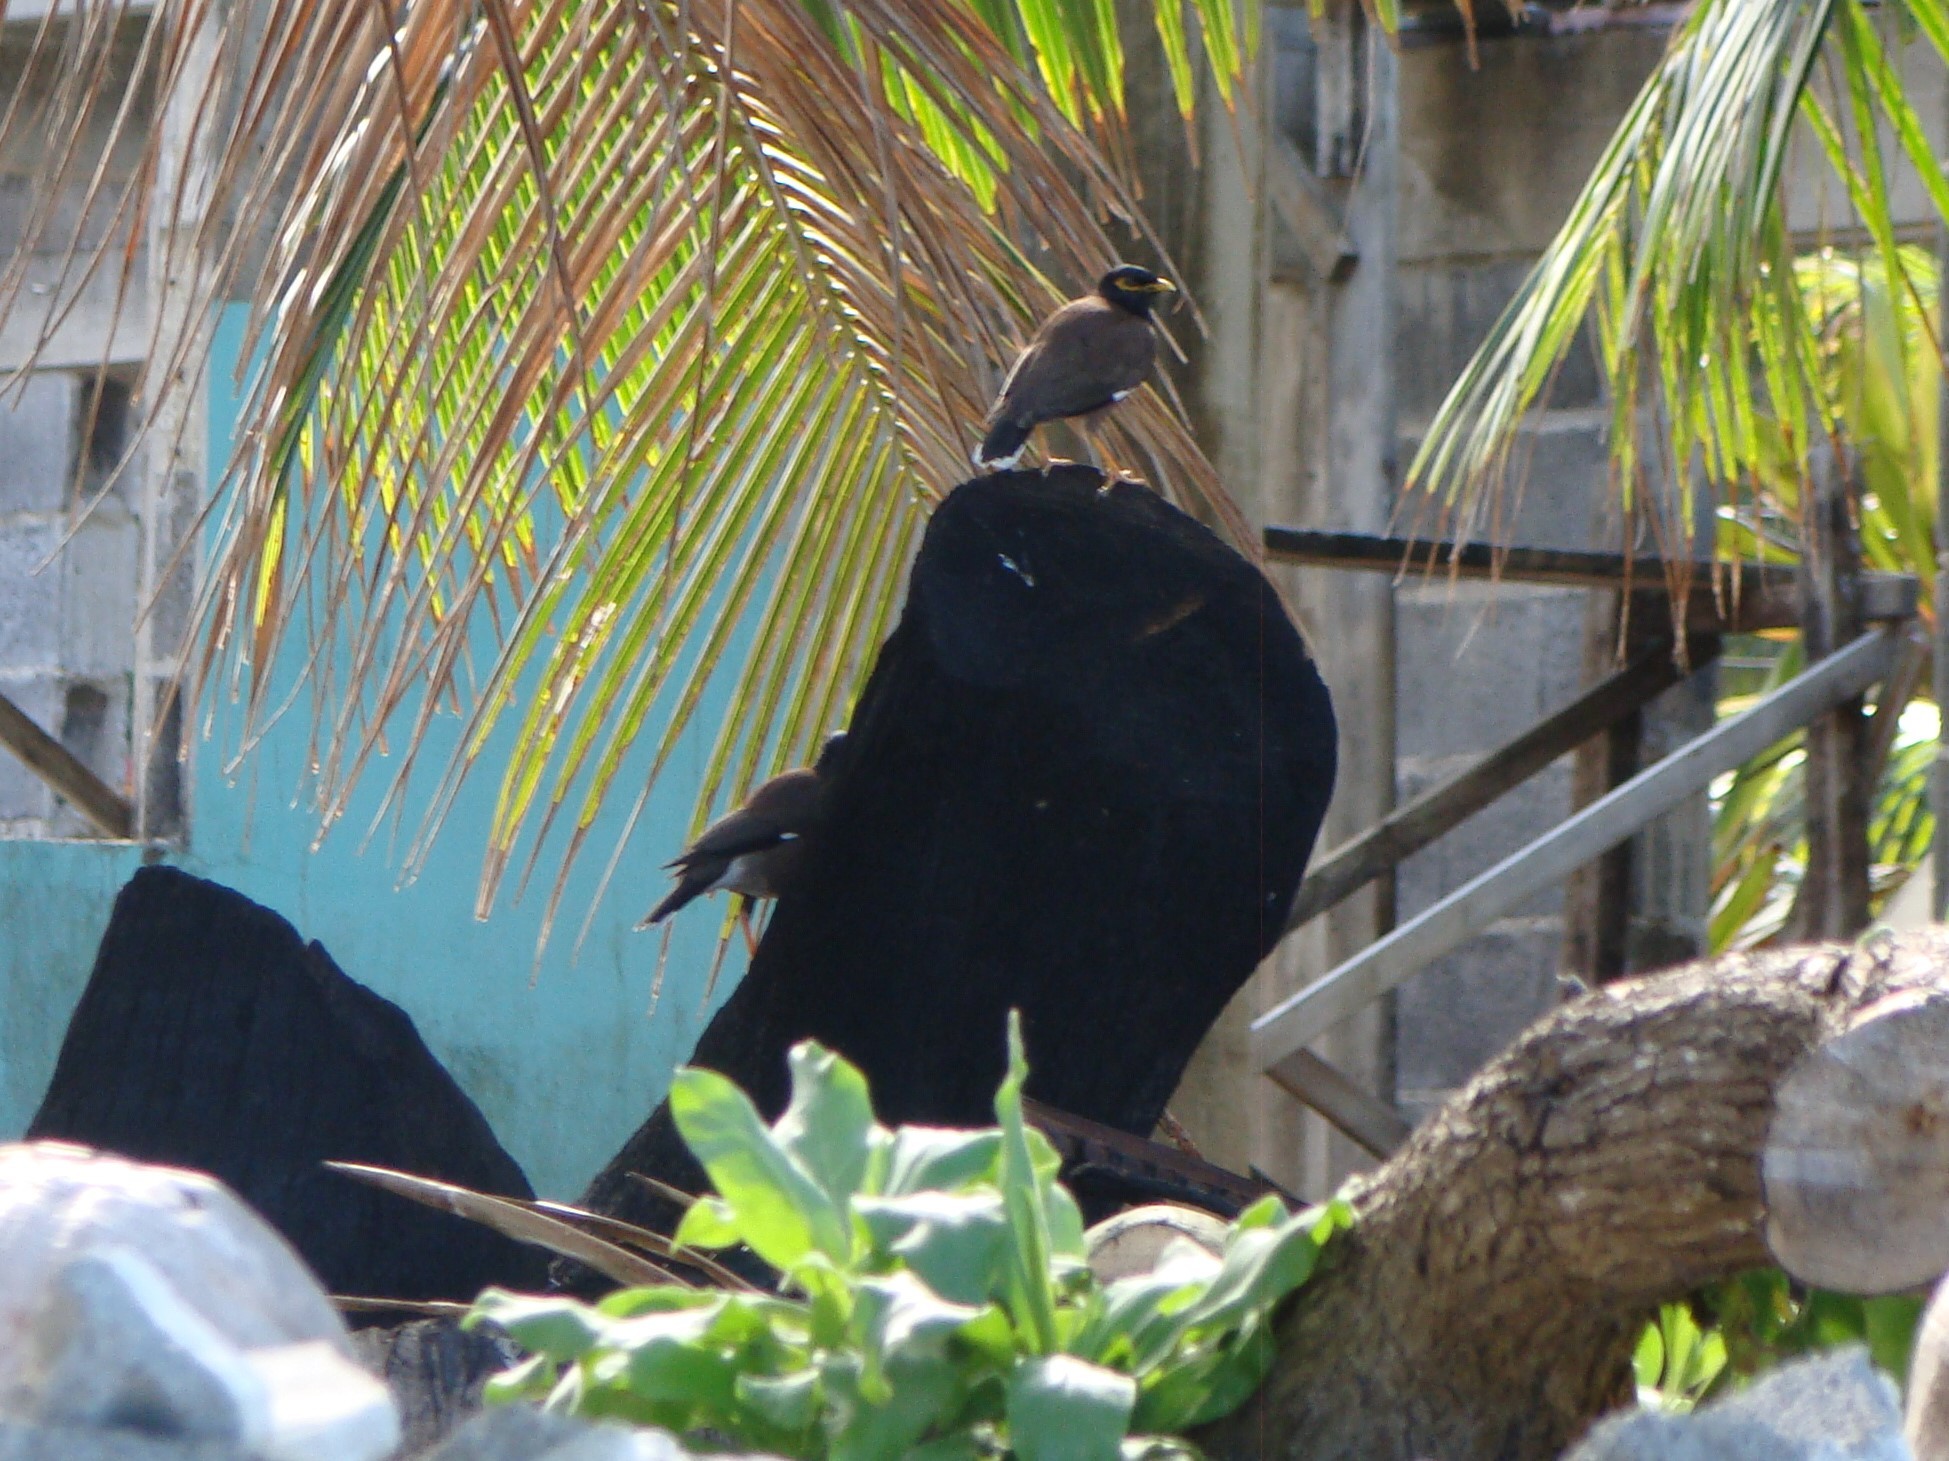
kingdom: Animalia
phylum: Chordata
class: Aves
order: Passeriformes
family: Sturnidae
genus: Acridotheres
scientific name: Acridotheres tristis
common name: Common myna
